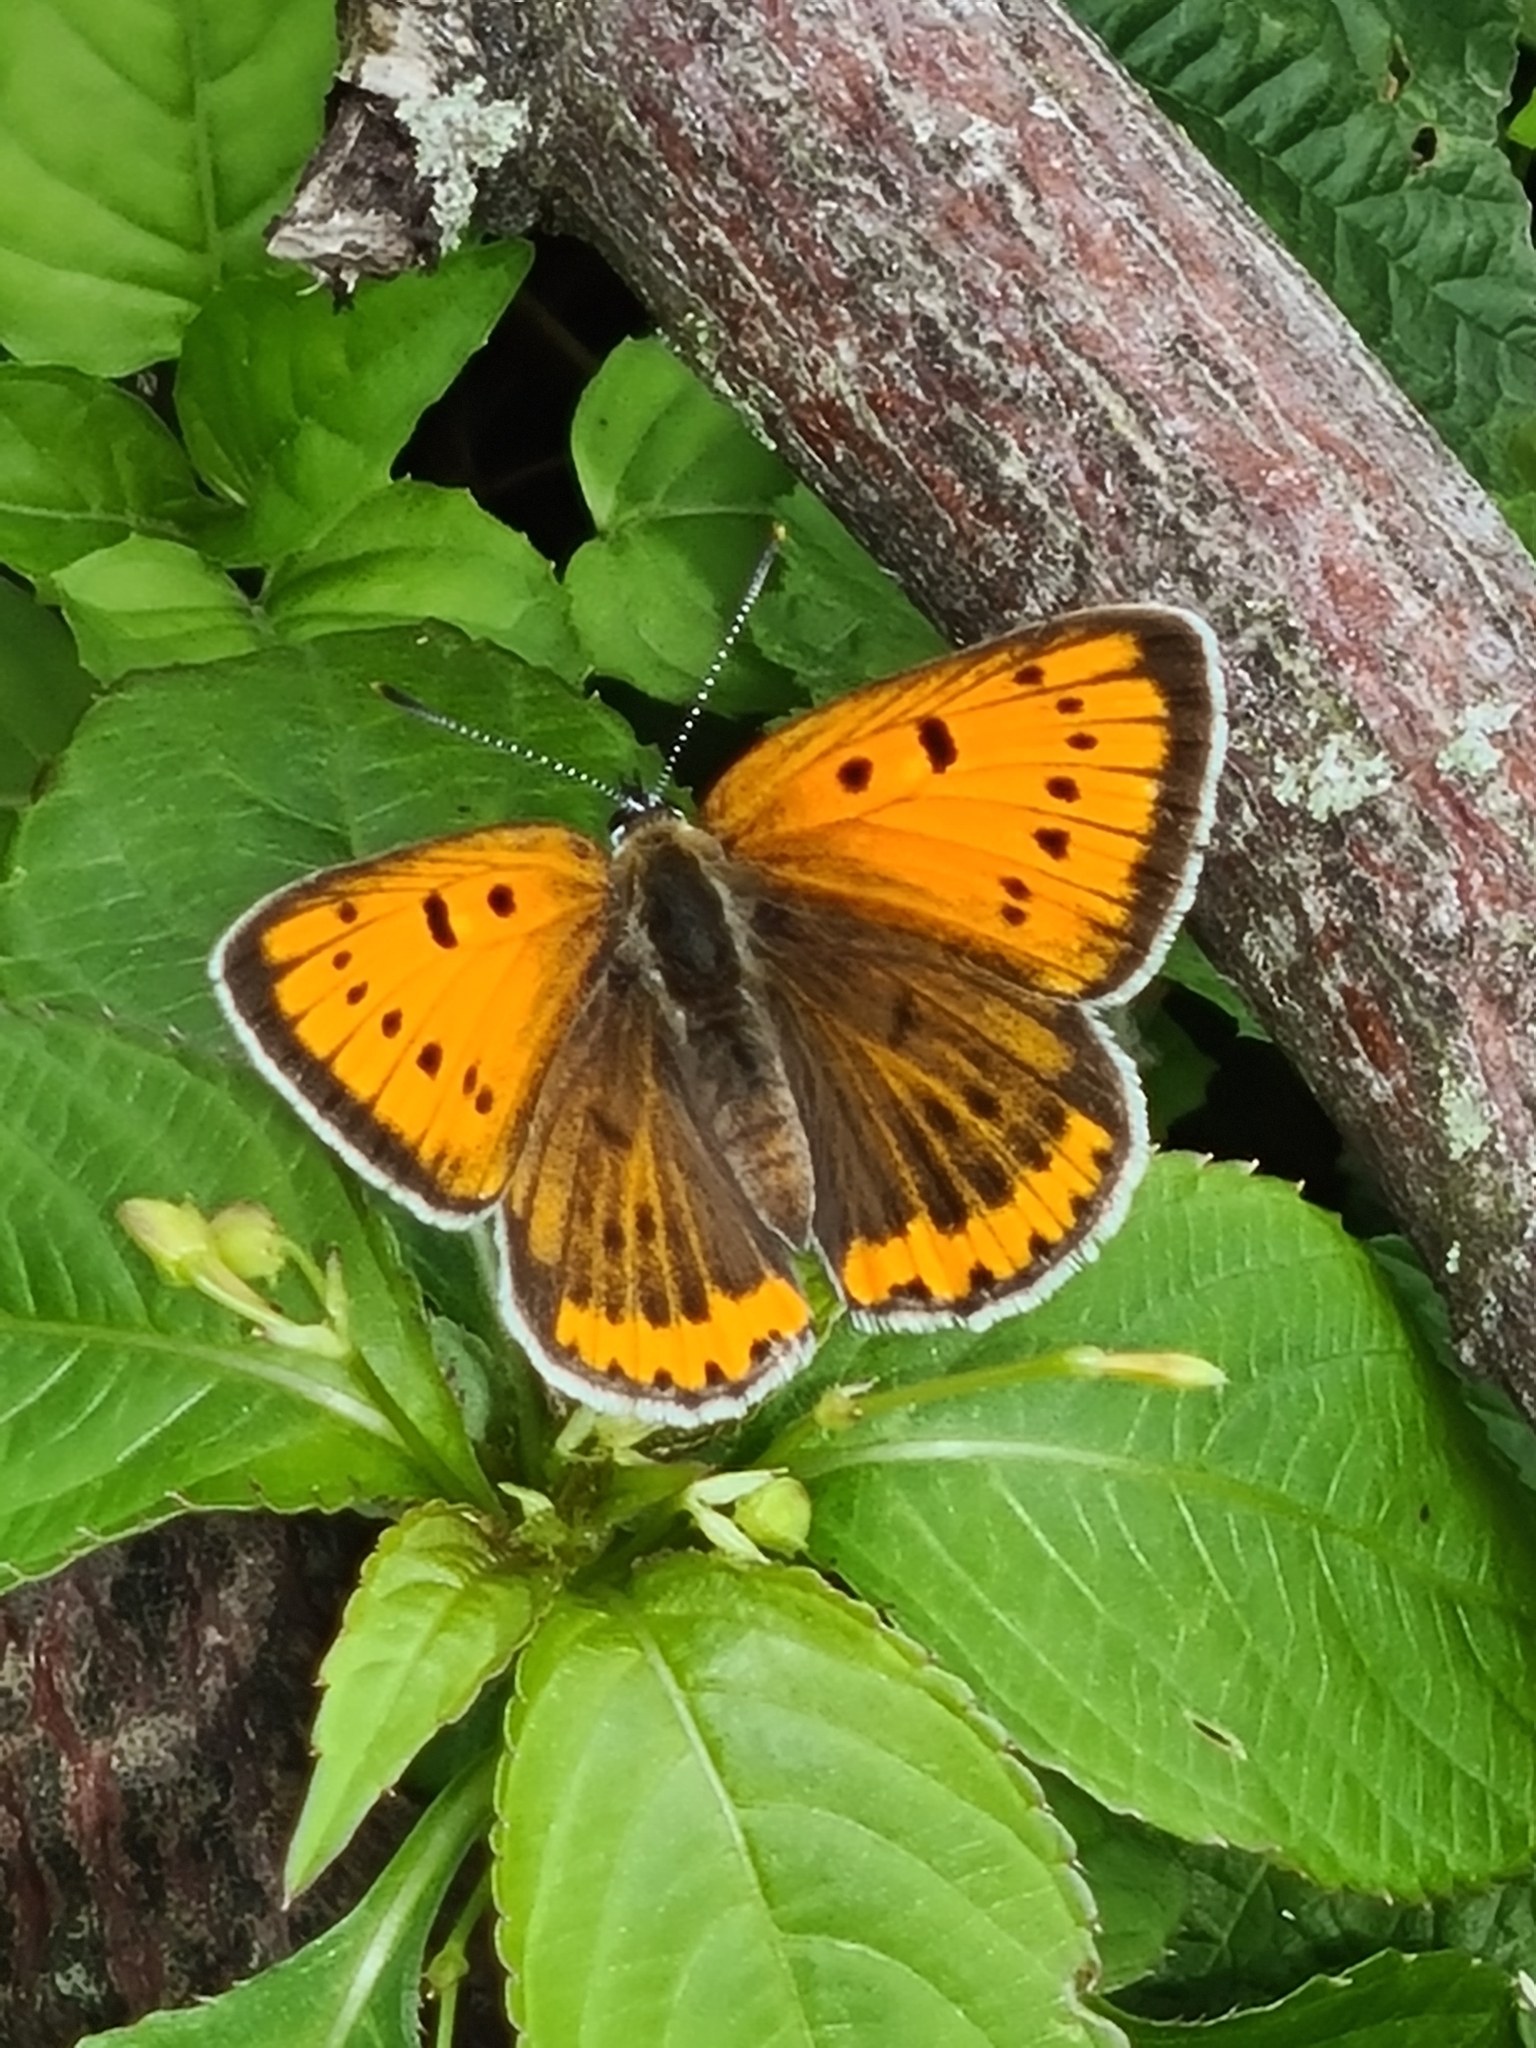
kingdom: Animalia
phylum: Arthropoda
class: Insecta
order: Lepidoptera
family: Lycaenidae
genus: Lycaena
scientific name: Lycaena dispar
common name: Large copper
